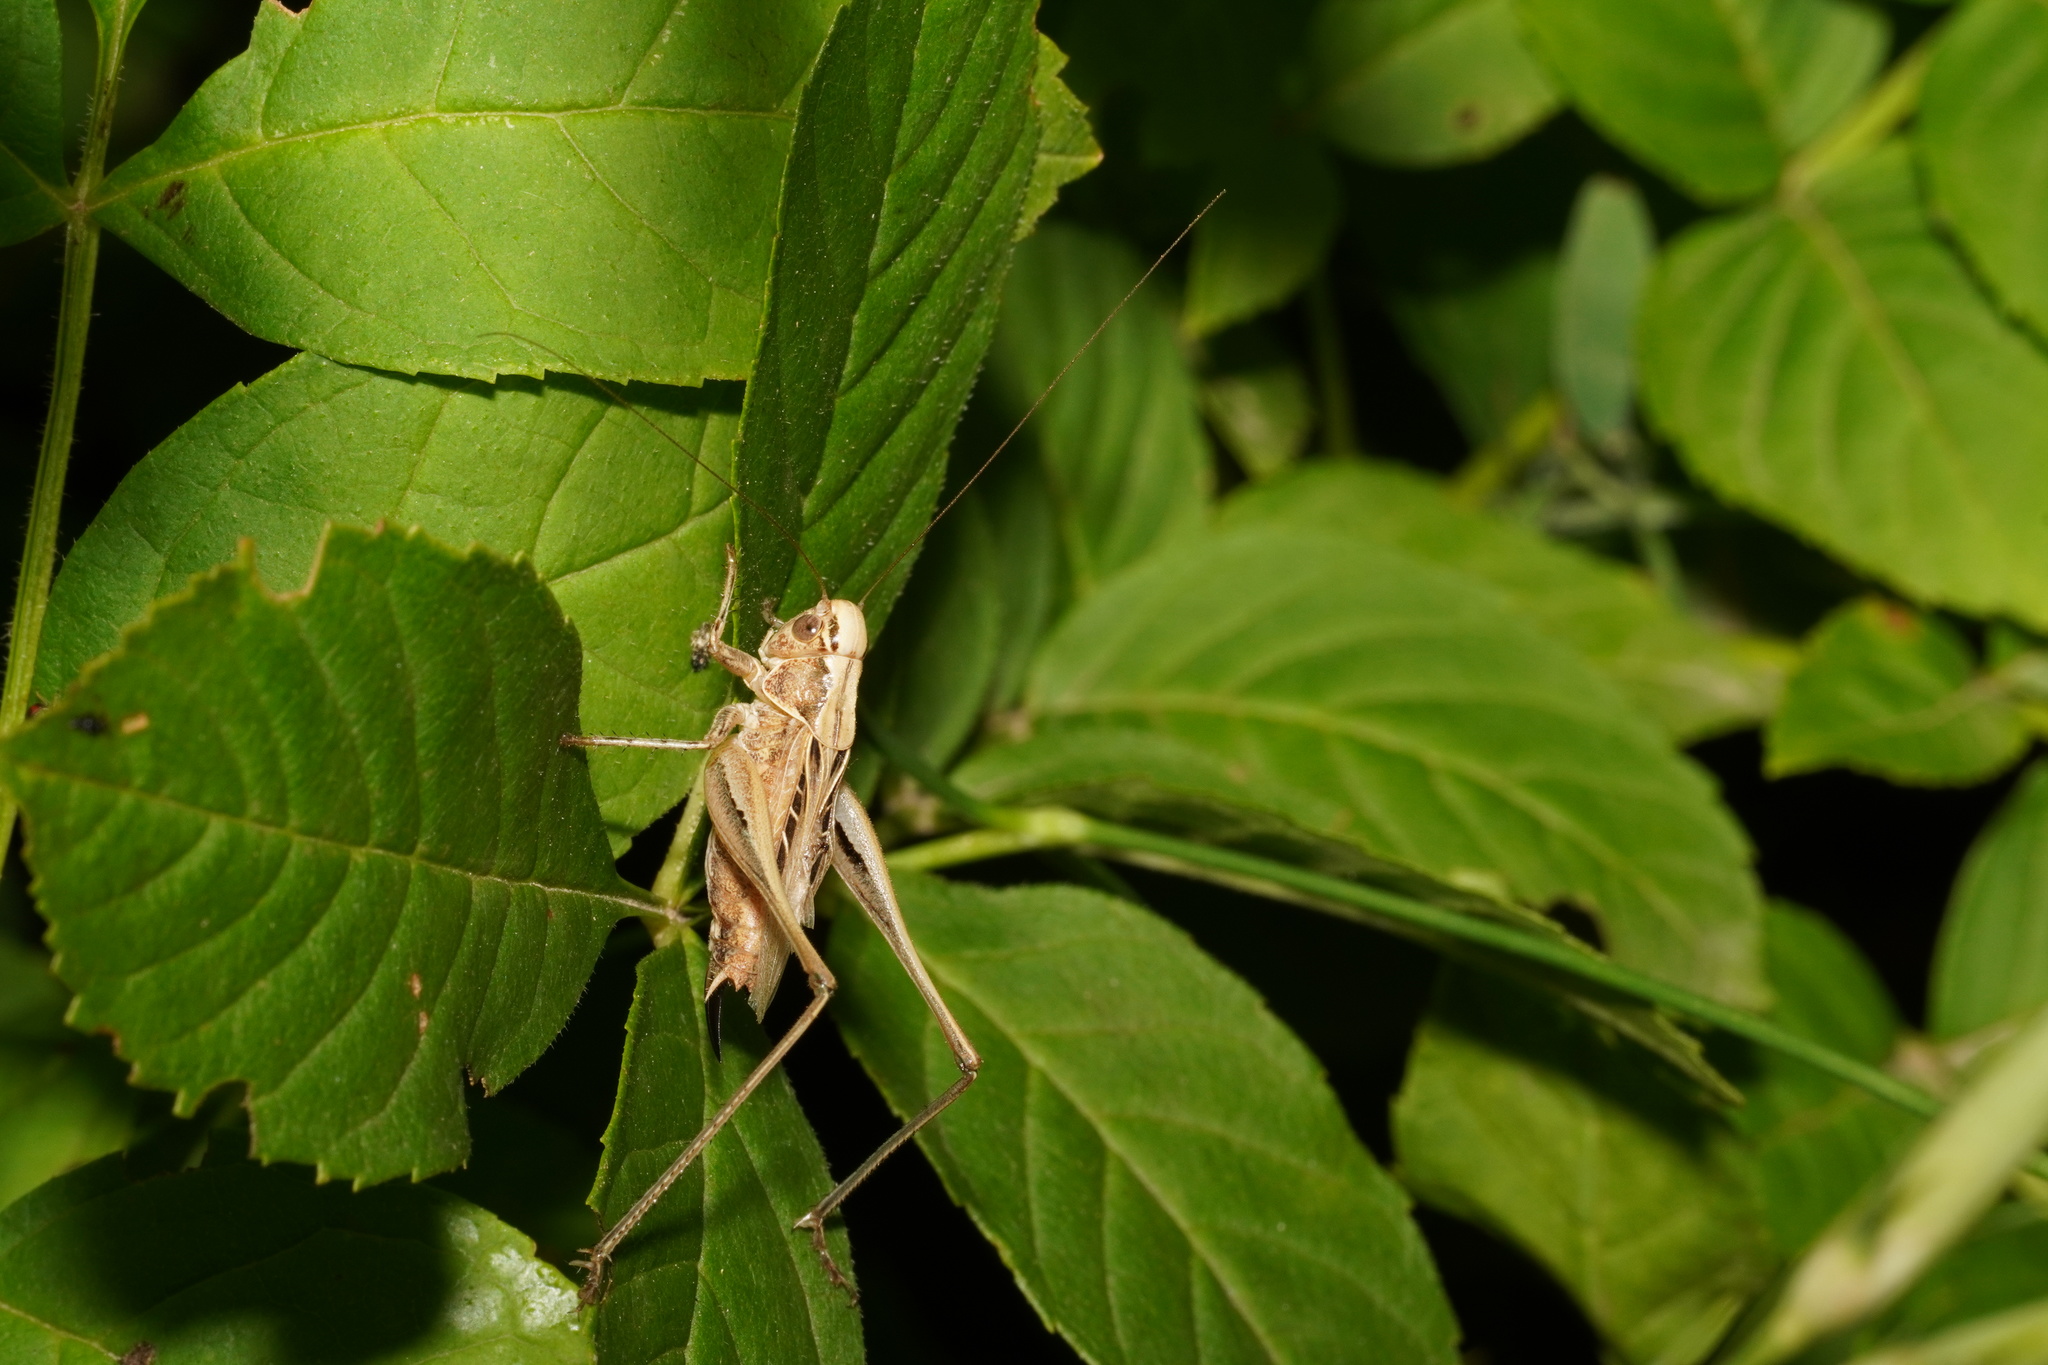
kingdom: Animalia
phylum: Arthropoda
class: Insecta
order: Orthoptera
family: Tettigoniidae
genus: Tessellana
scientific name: Tessellana tessellata
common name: Grasshopper
